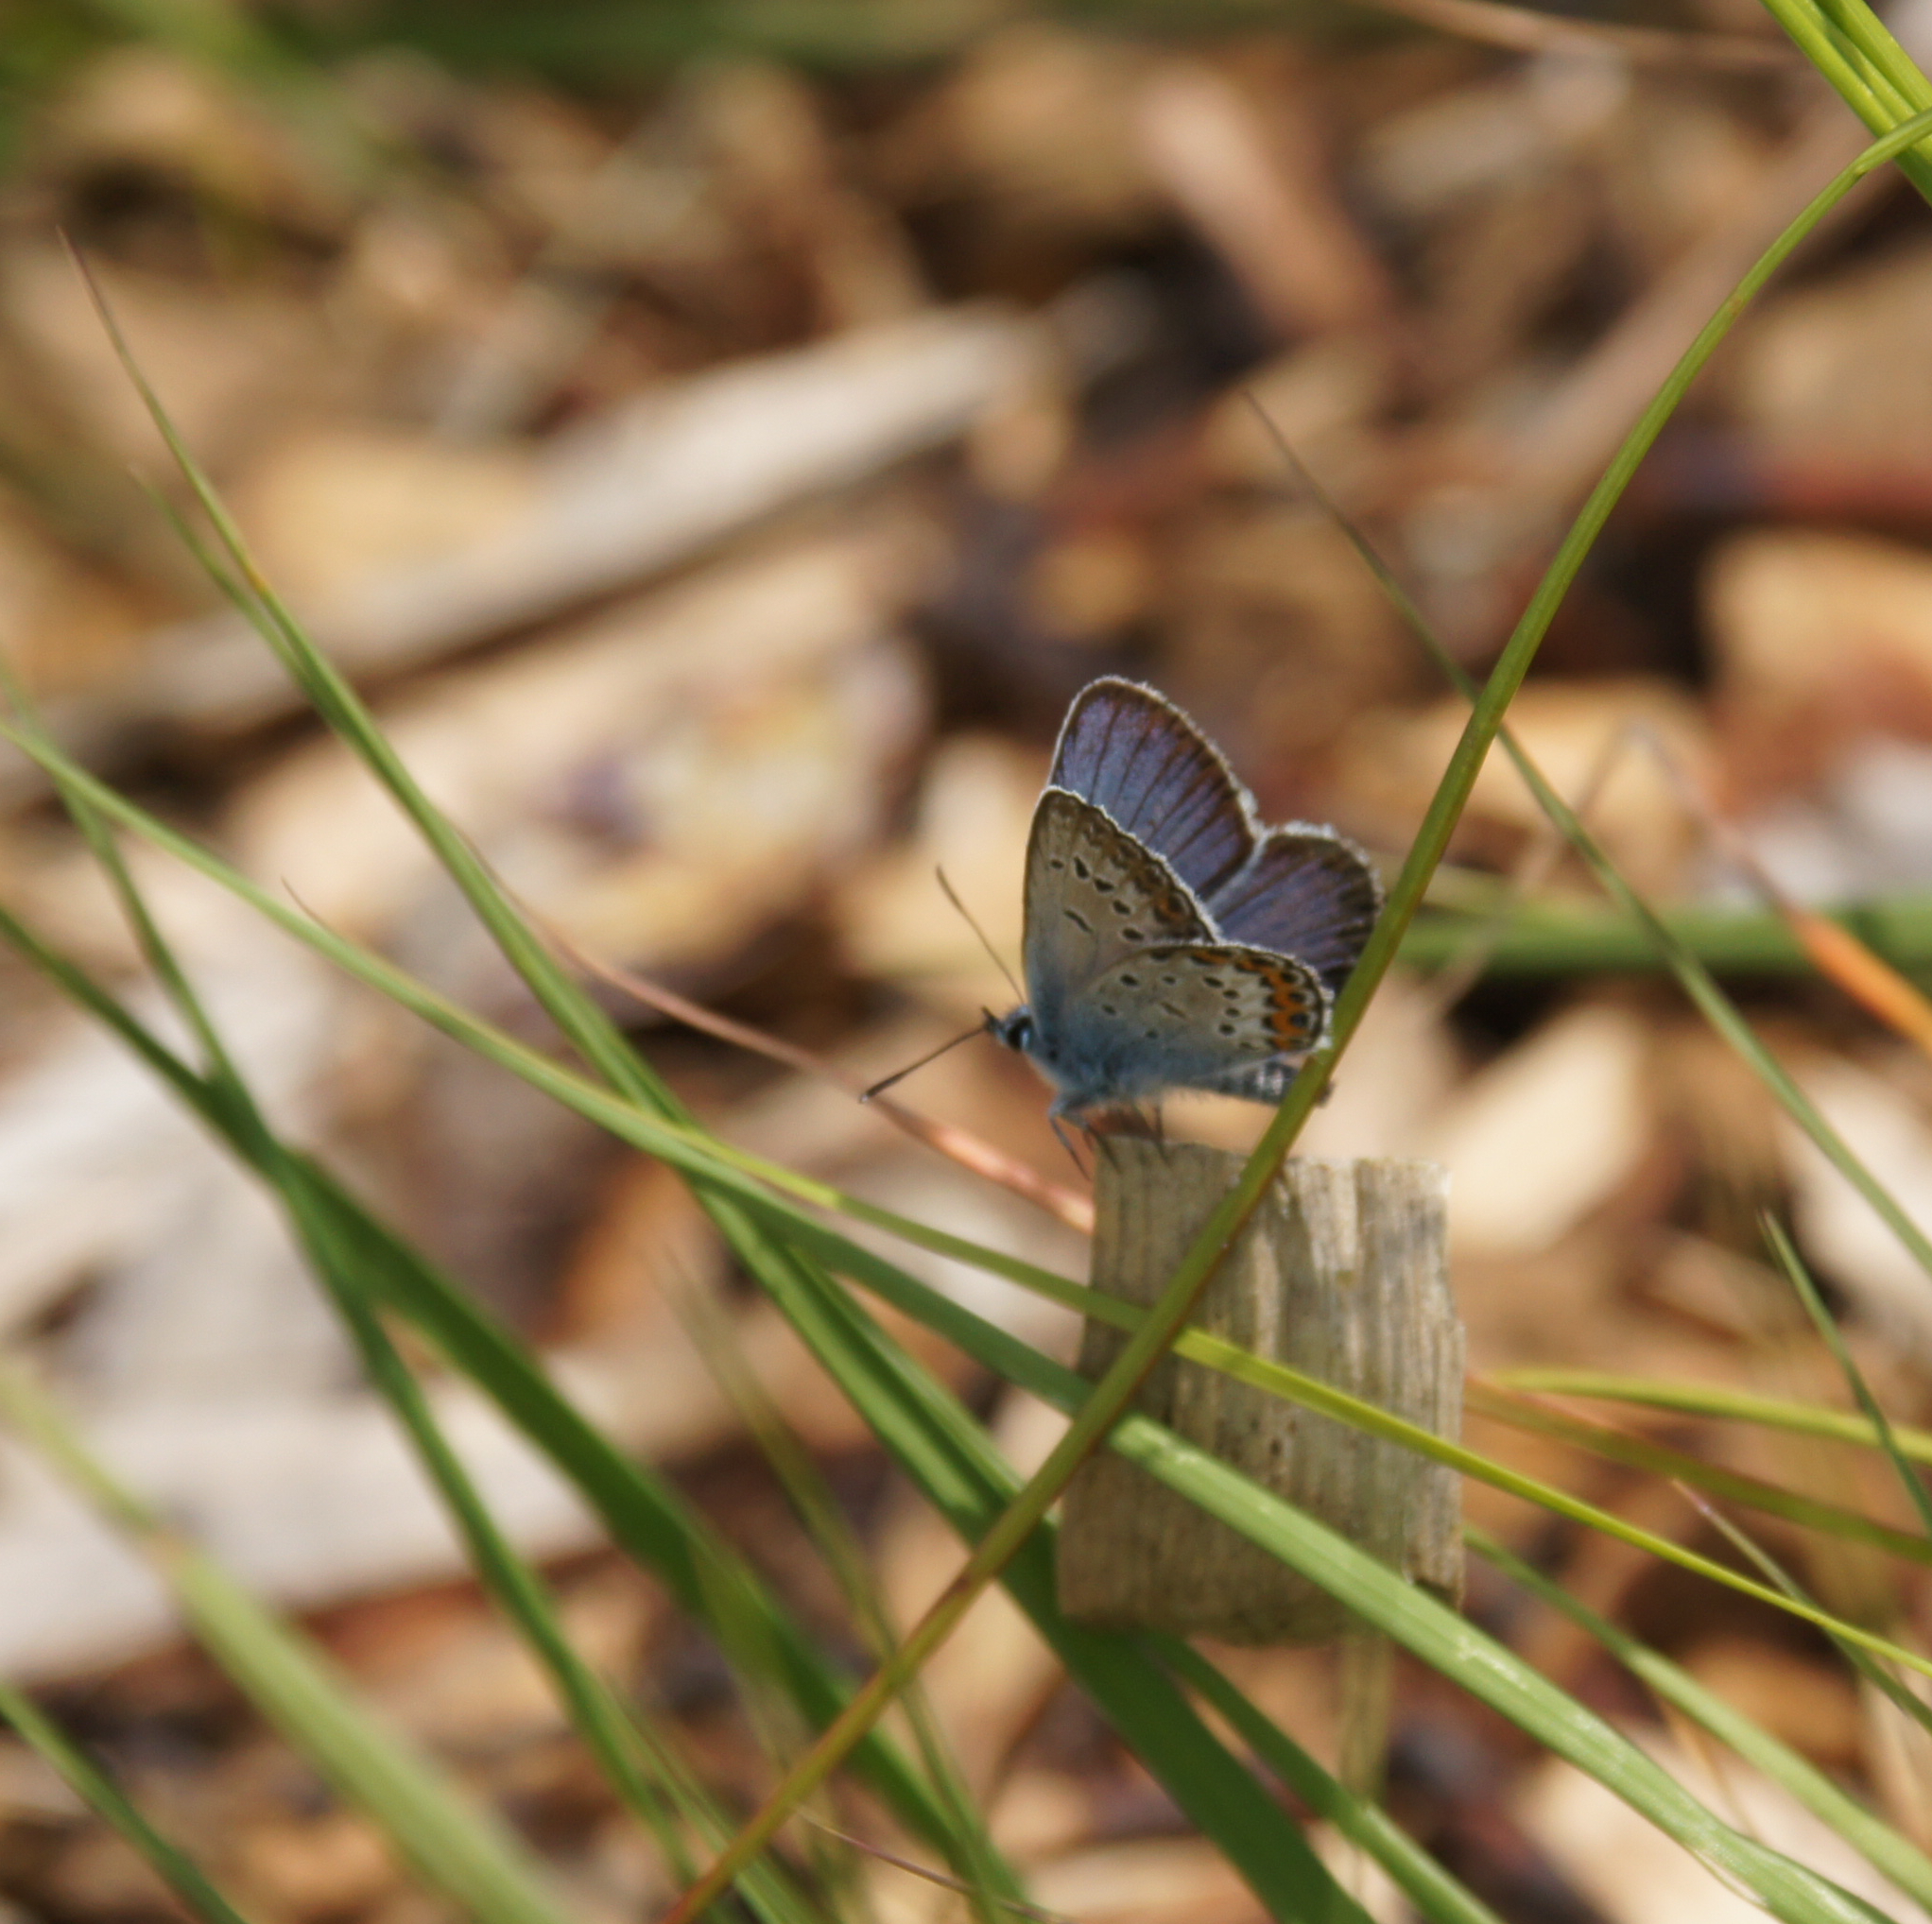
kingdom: Animalia
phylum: Arthropoda
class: Insecta
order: Lepidoptera
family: Lycaenidae
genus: Plebejus
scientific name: Plebejus argus
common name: Silver-studded blue
